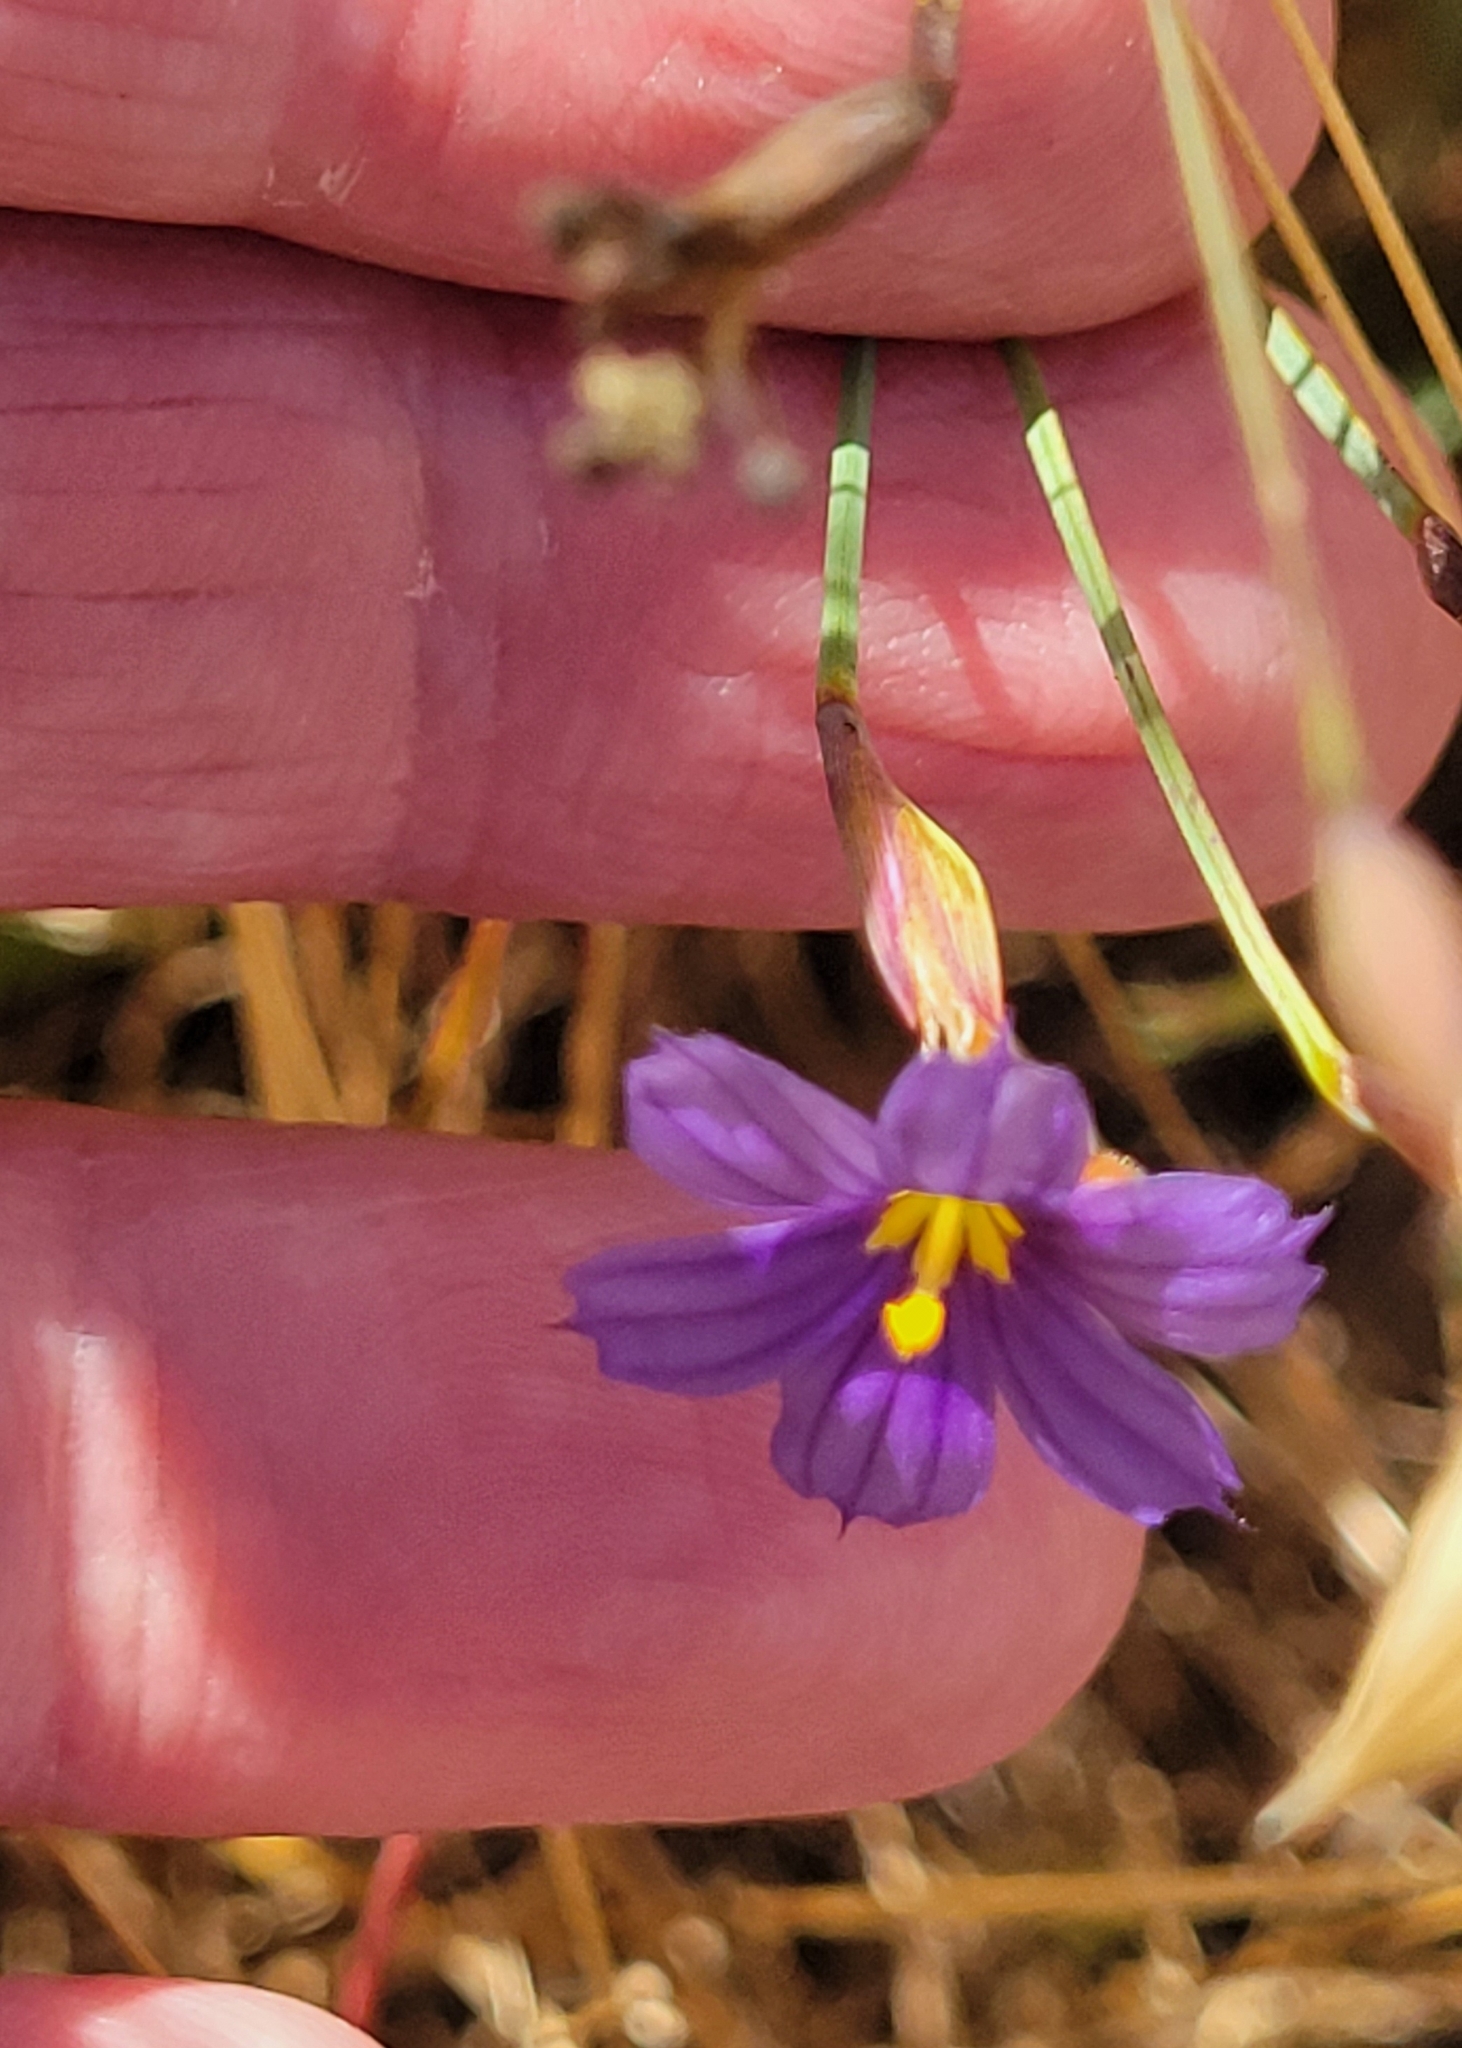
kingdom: Plantae
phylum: Tracheophyta
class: Liliopsida
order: Asparagales
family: Iridaceae
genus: Sisyrinchium
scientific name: Sisyrinchium bellum
